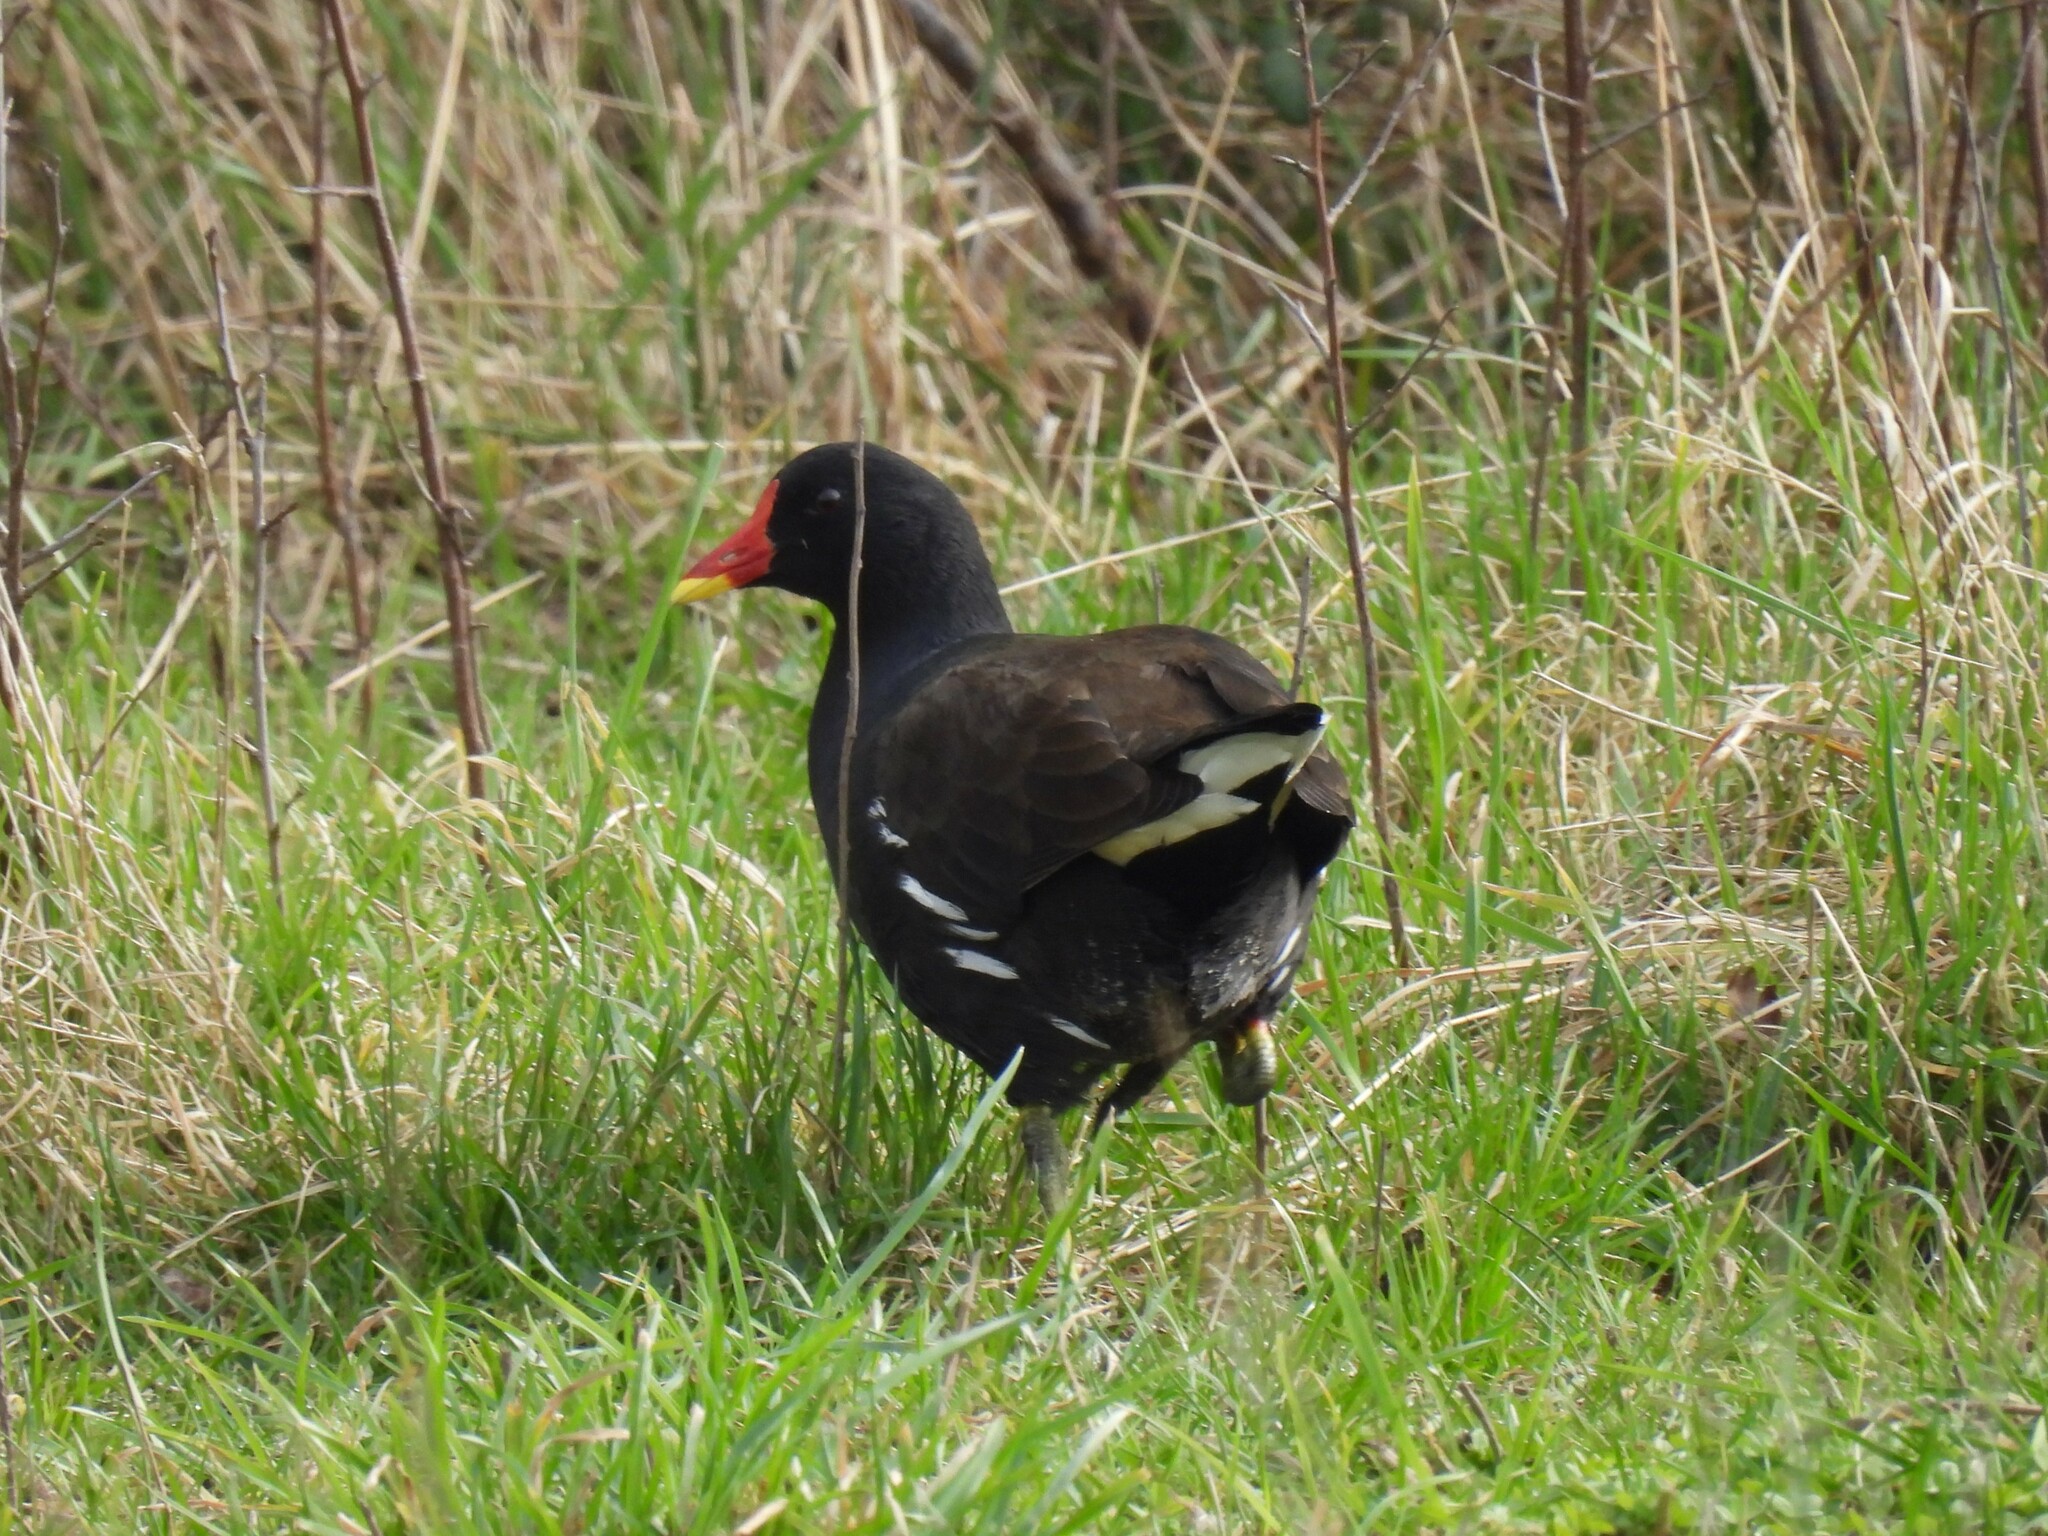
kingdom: Animalia
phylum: Chordata
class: Aves
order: Gruiformes
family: Rallidae
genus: Gallinula
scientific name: Gallinula chloropus
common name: Common moorhen
